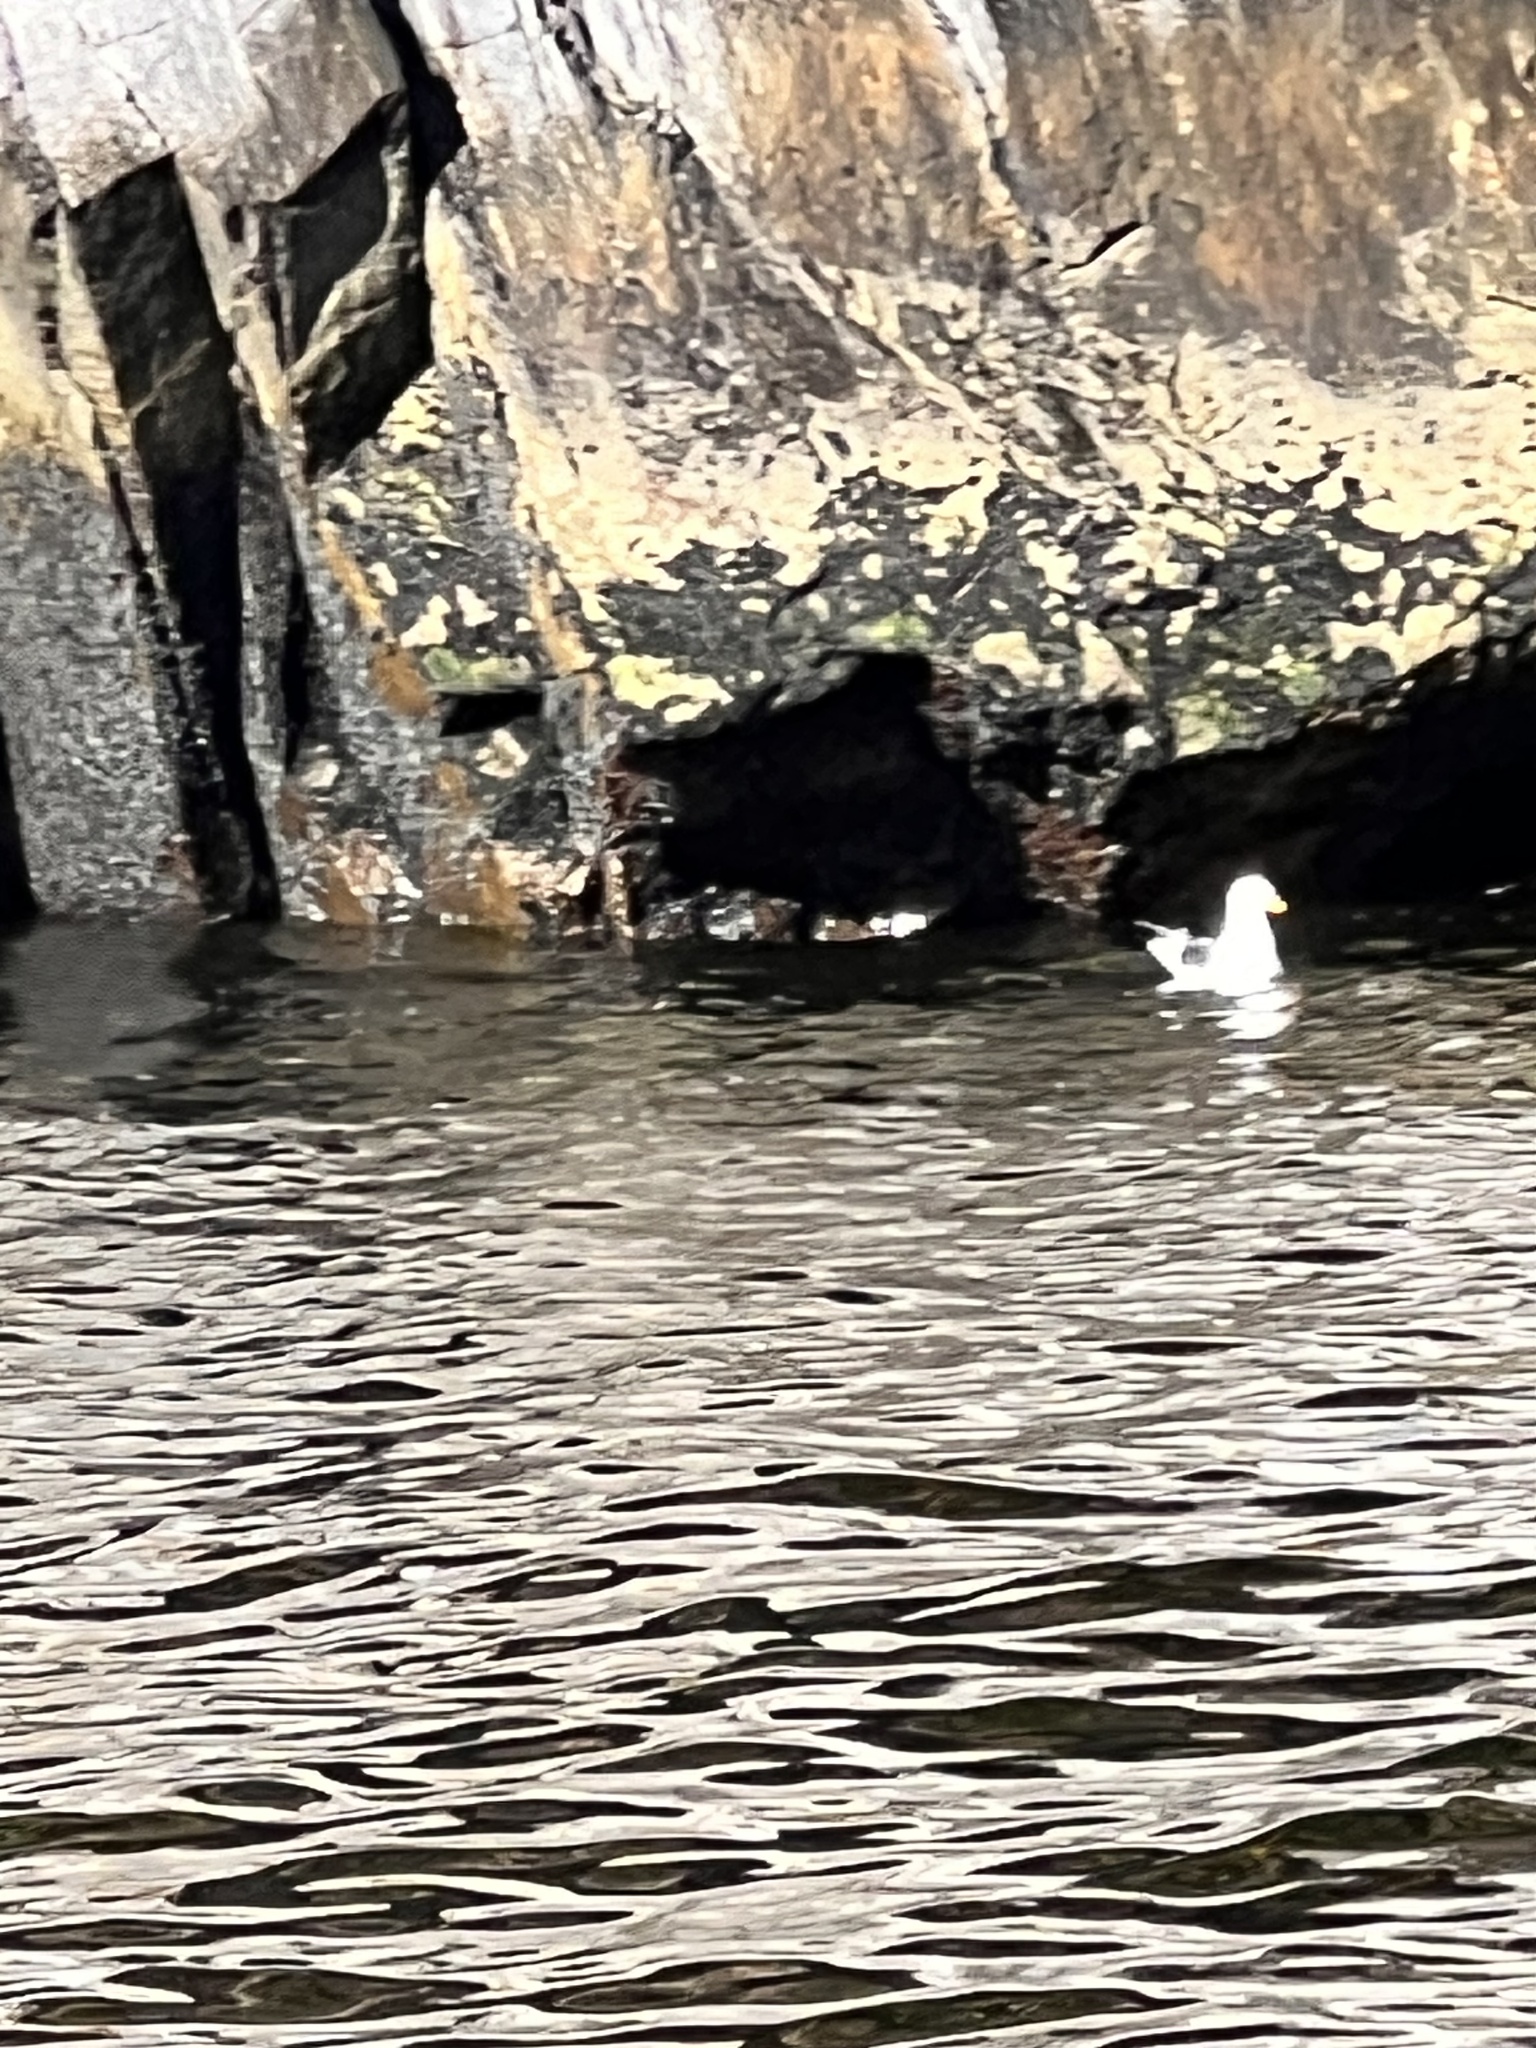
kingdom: Animalia
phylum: Chordata
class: Aves
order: Charadriiformes
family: Laridae
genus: Larus
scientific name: Larus dominicanus
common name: Kelp gull
